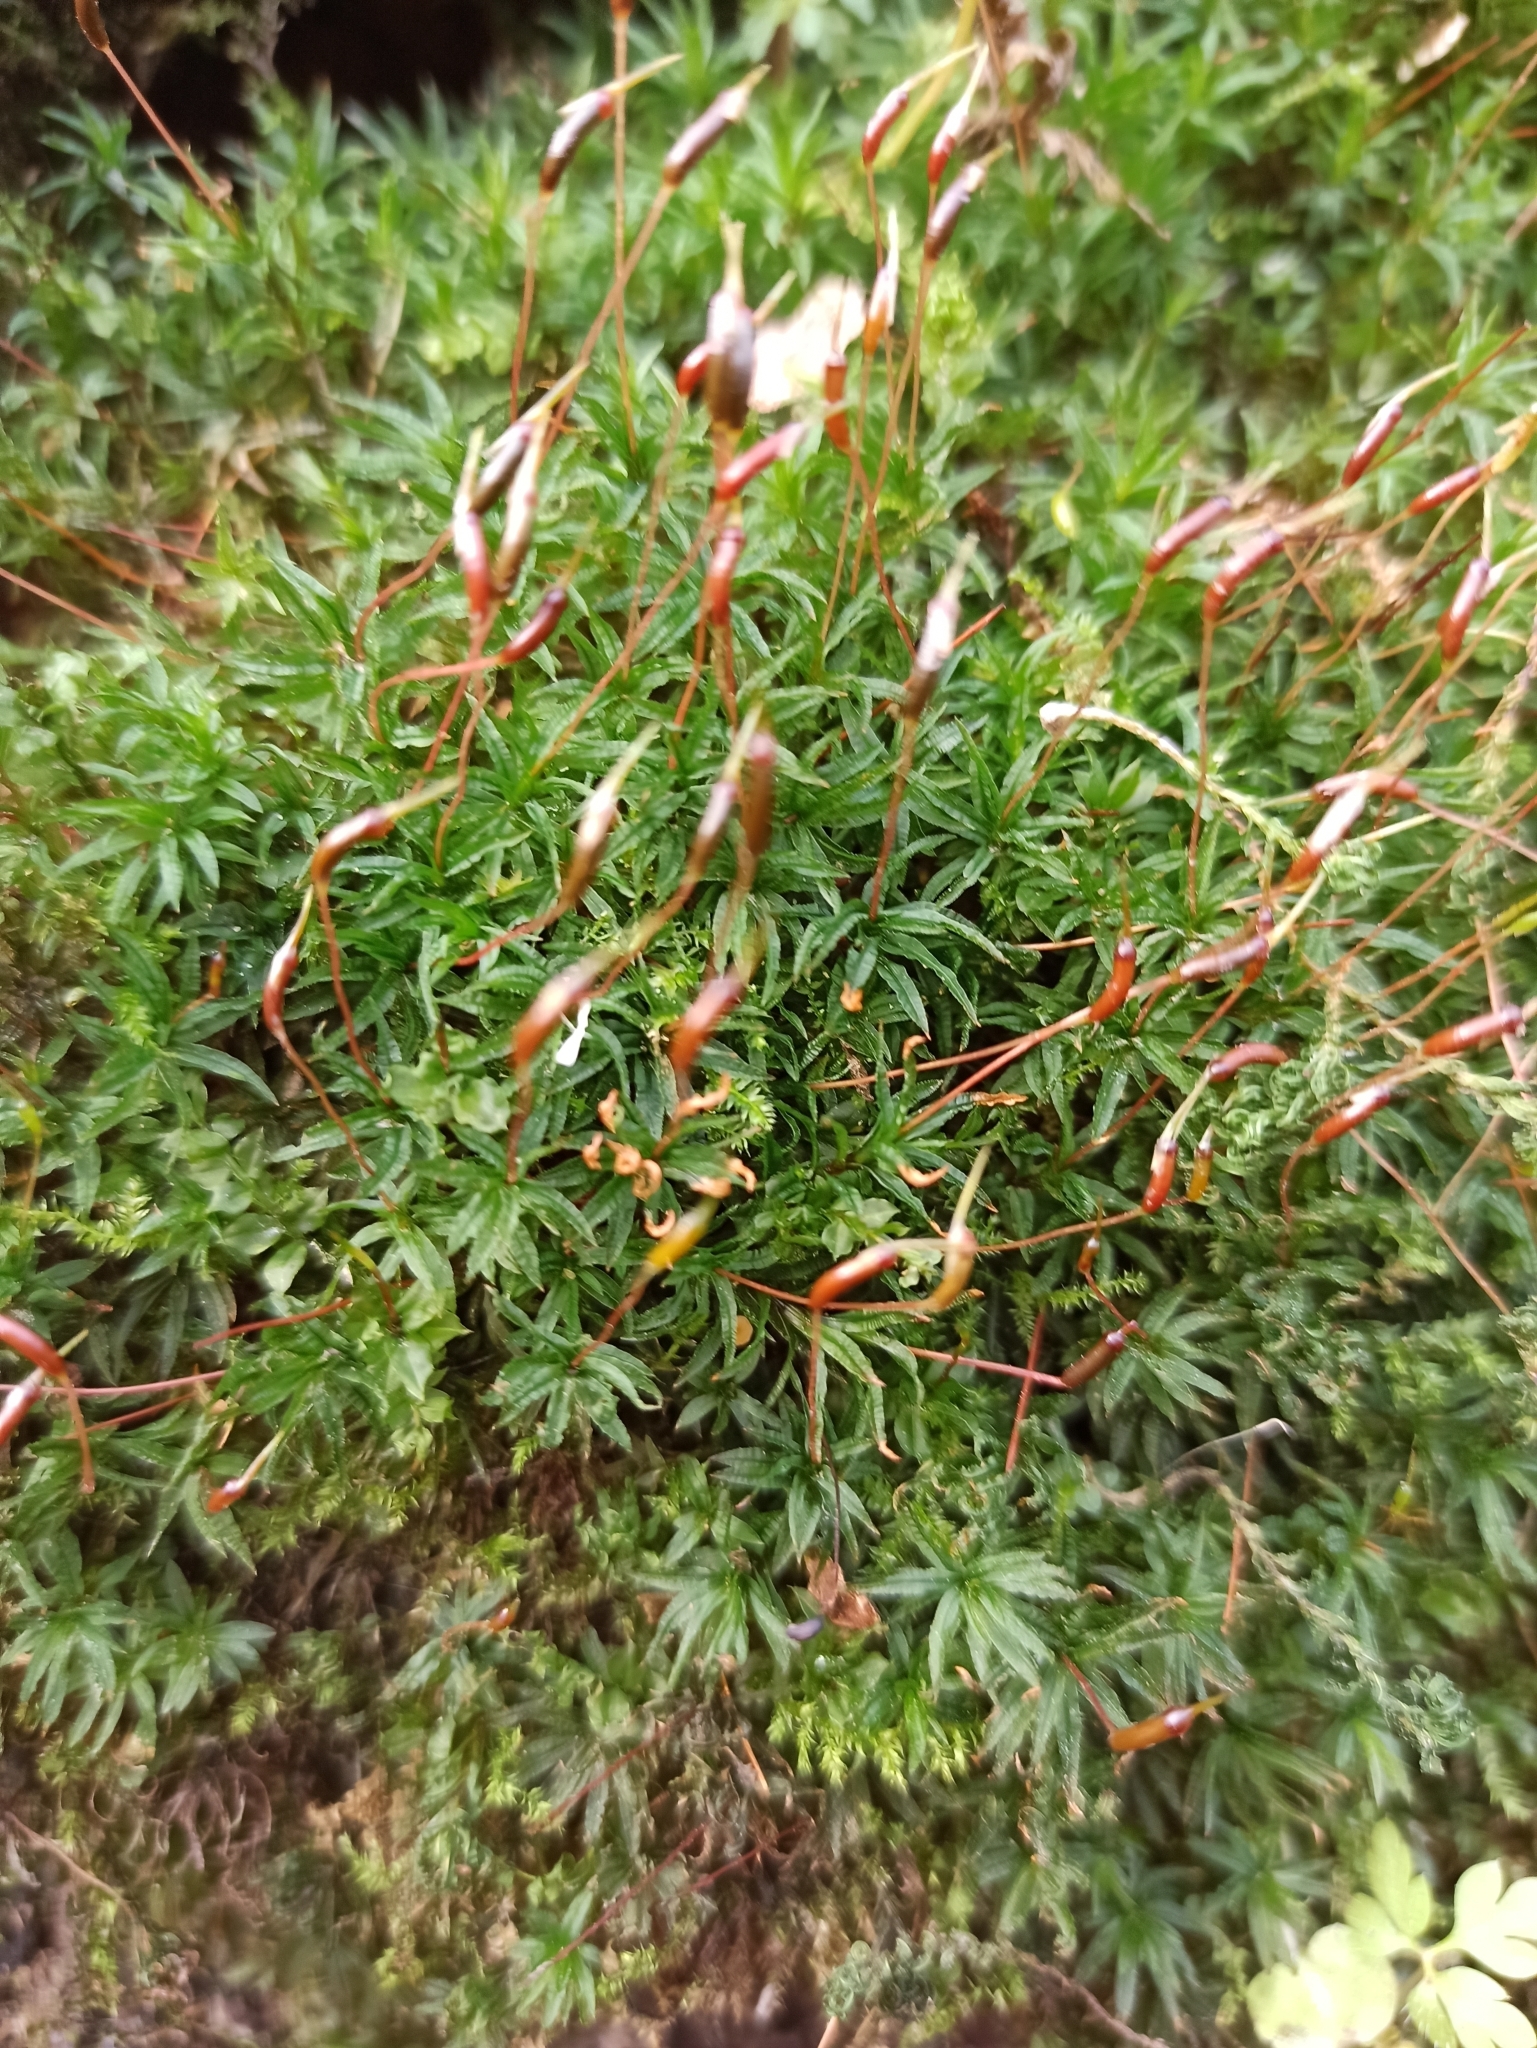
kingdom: Plantae
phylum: Bryophyta
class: Polytrichopsida
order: Polytrichales
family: Polytrichaceae
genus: Atrichum
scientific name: Atrichum undulatum
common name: Common smoothcap
